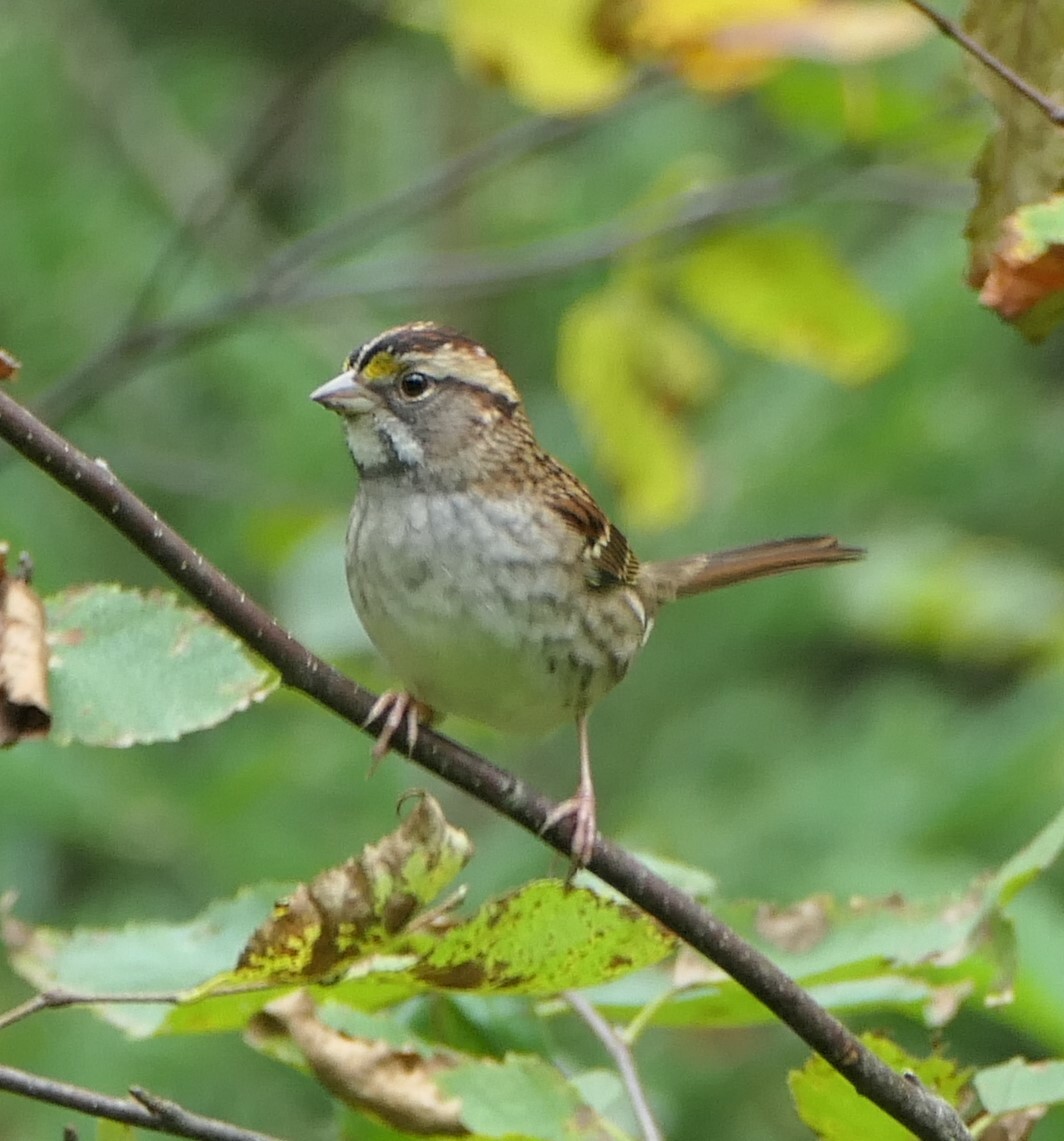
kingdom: Animalia
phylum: Chordata
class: Aves
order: Passeriformes
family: Passerellidae
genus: Zonotrichia
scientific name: Zonotrichia albicollis
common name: White-throated sparrow
